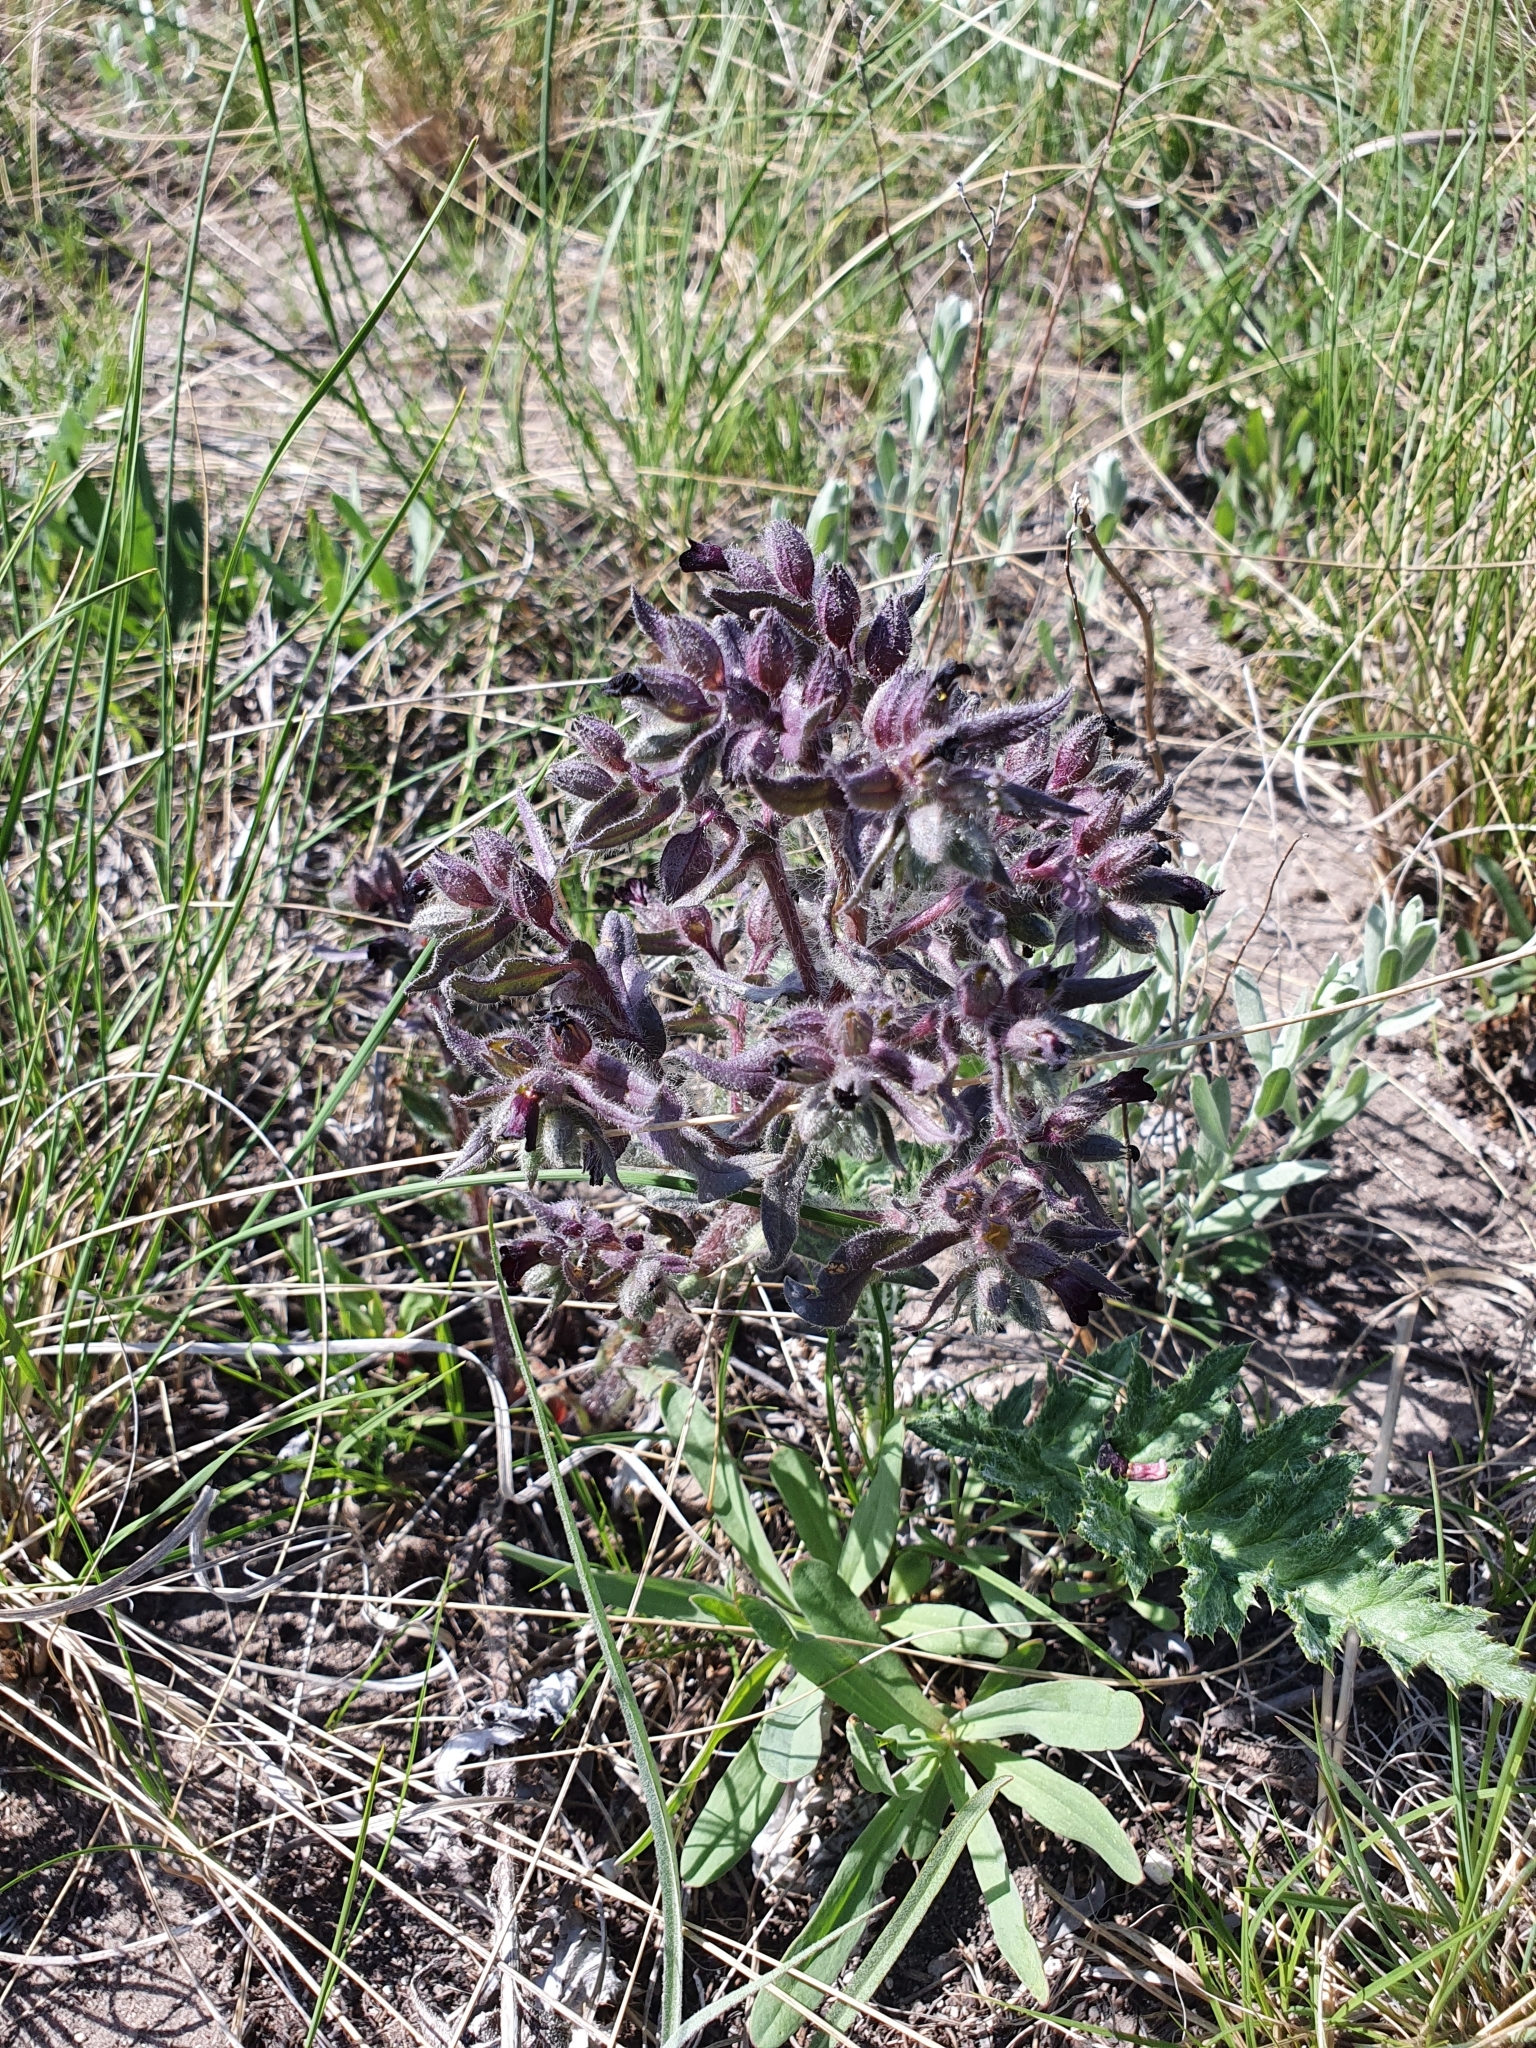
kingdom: Plantae
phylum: Tracheophyta
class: Magnoliopsida
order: Boraginales
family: Boraginaceae
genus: Nonea
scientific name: Nonea pulla
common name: Brown nonea
